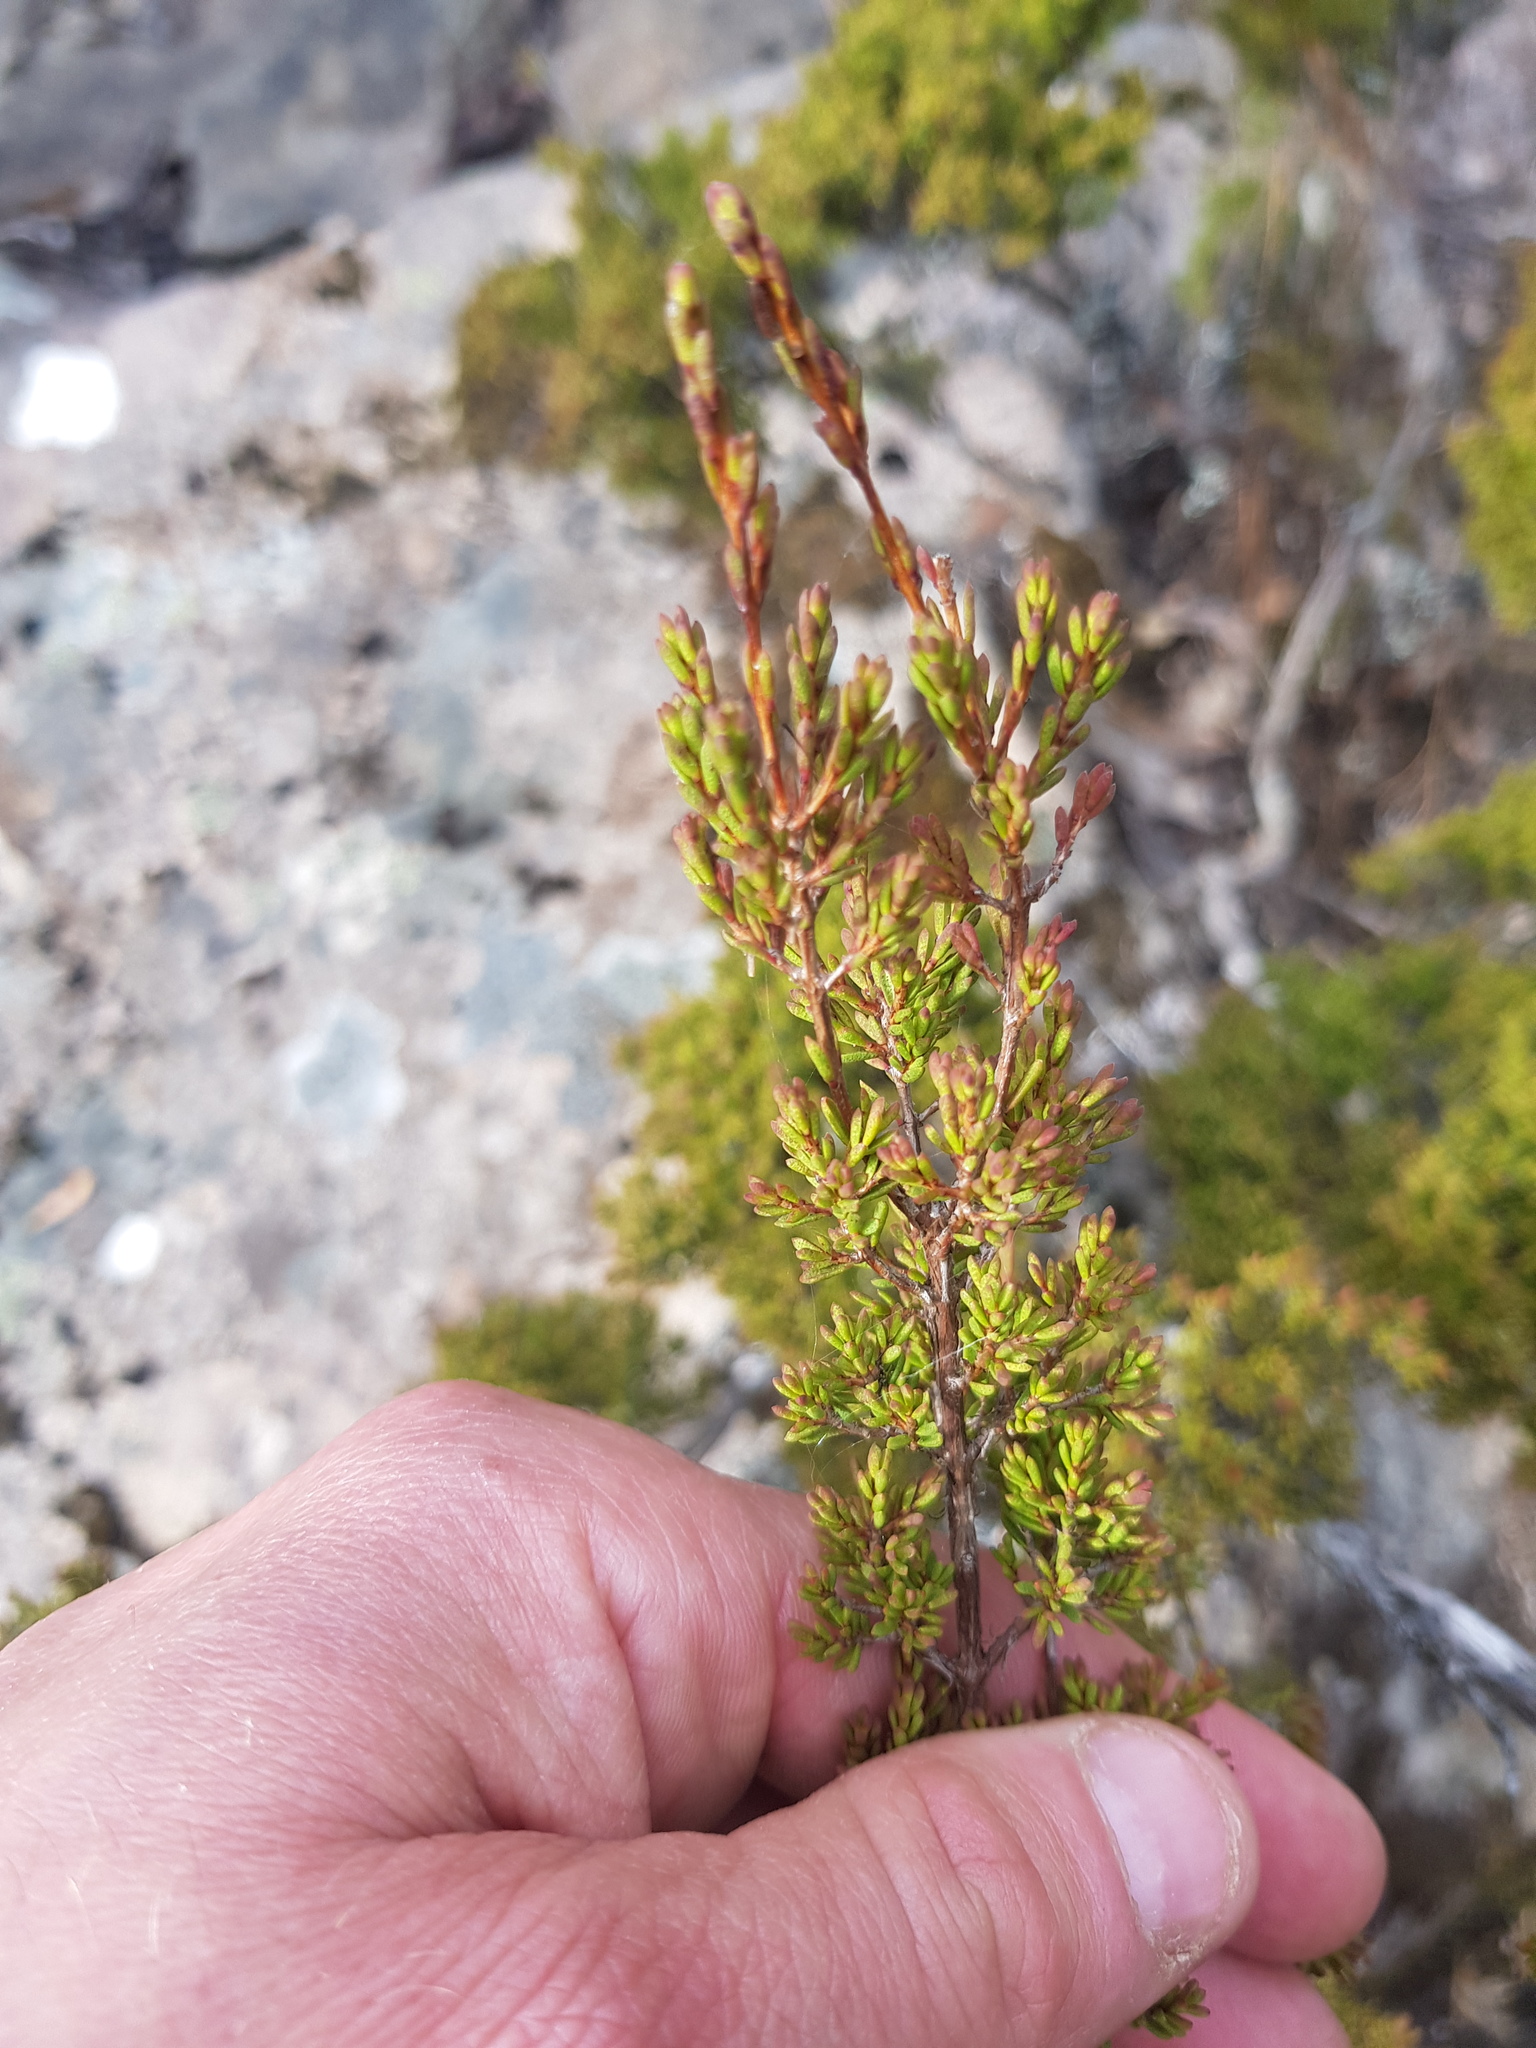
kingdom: Plantae
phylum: Tracheophyta
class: Magnoliopsida
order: Myrtales
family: Myrtaceae
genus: Baeckea
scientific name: Baeckea gunniana
